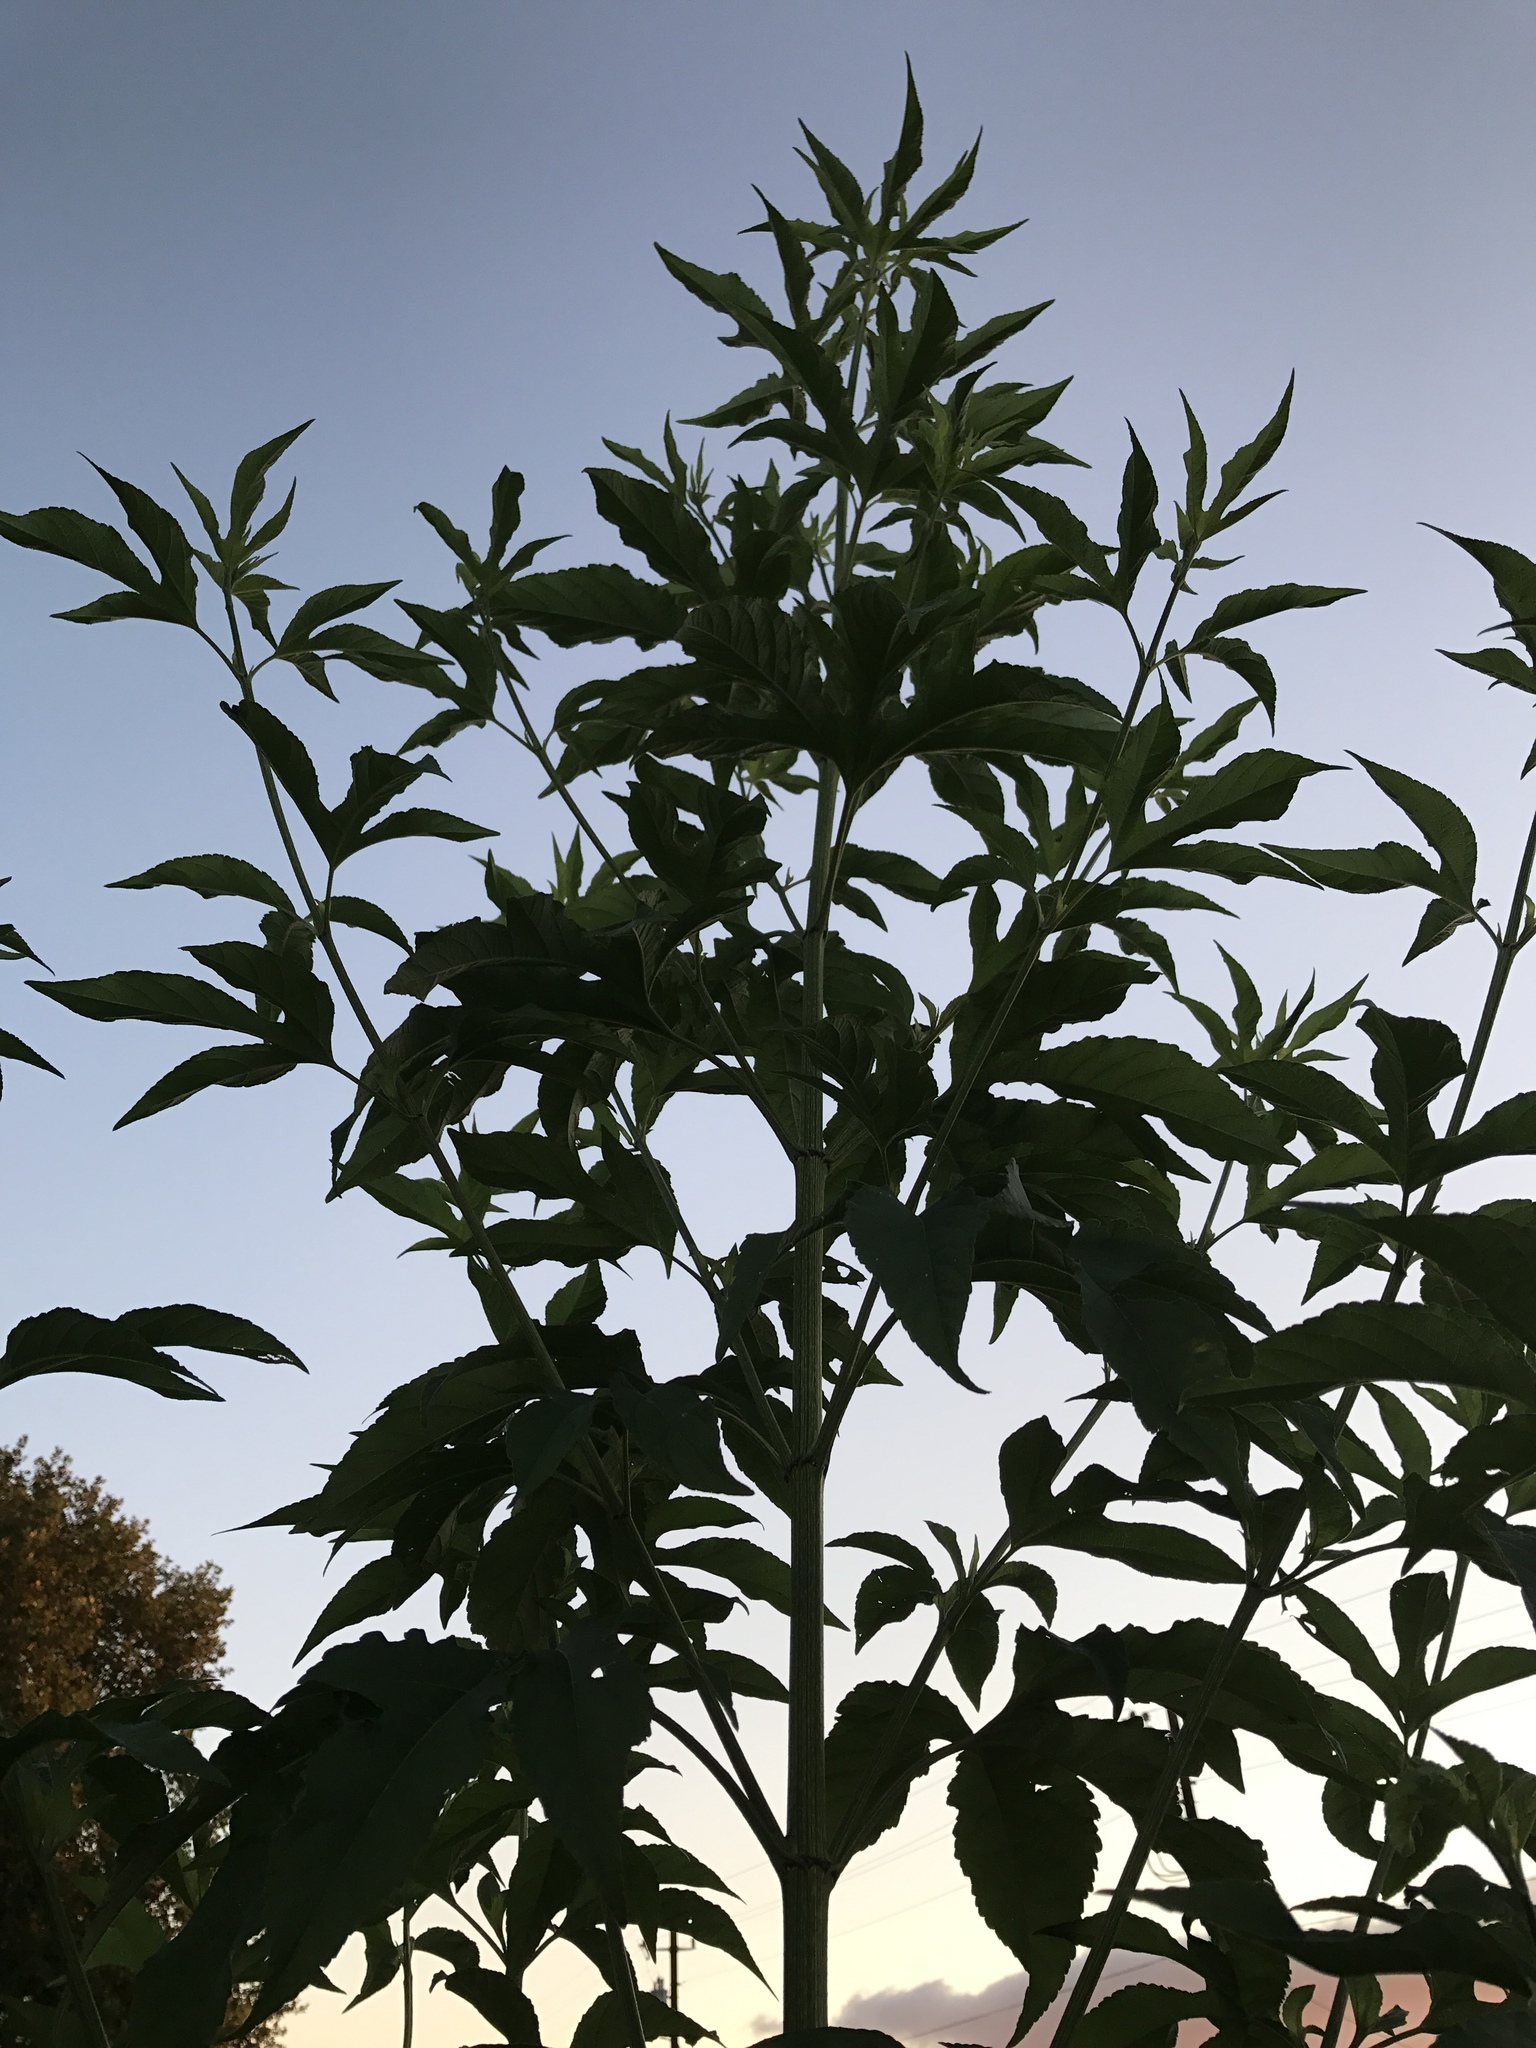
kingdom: Plantae
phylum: Tracheophyta
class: Magnoliopsida
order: Asterales
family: Asteraceae
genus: Ambrosia
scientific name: Ambrosia trifida
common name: Giant ragweed
